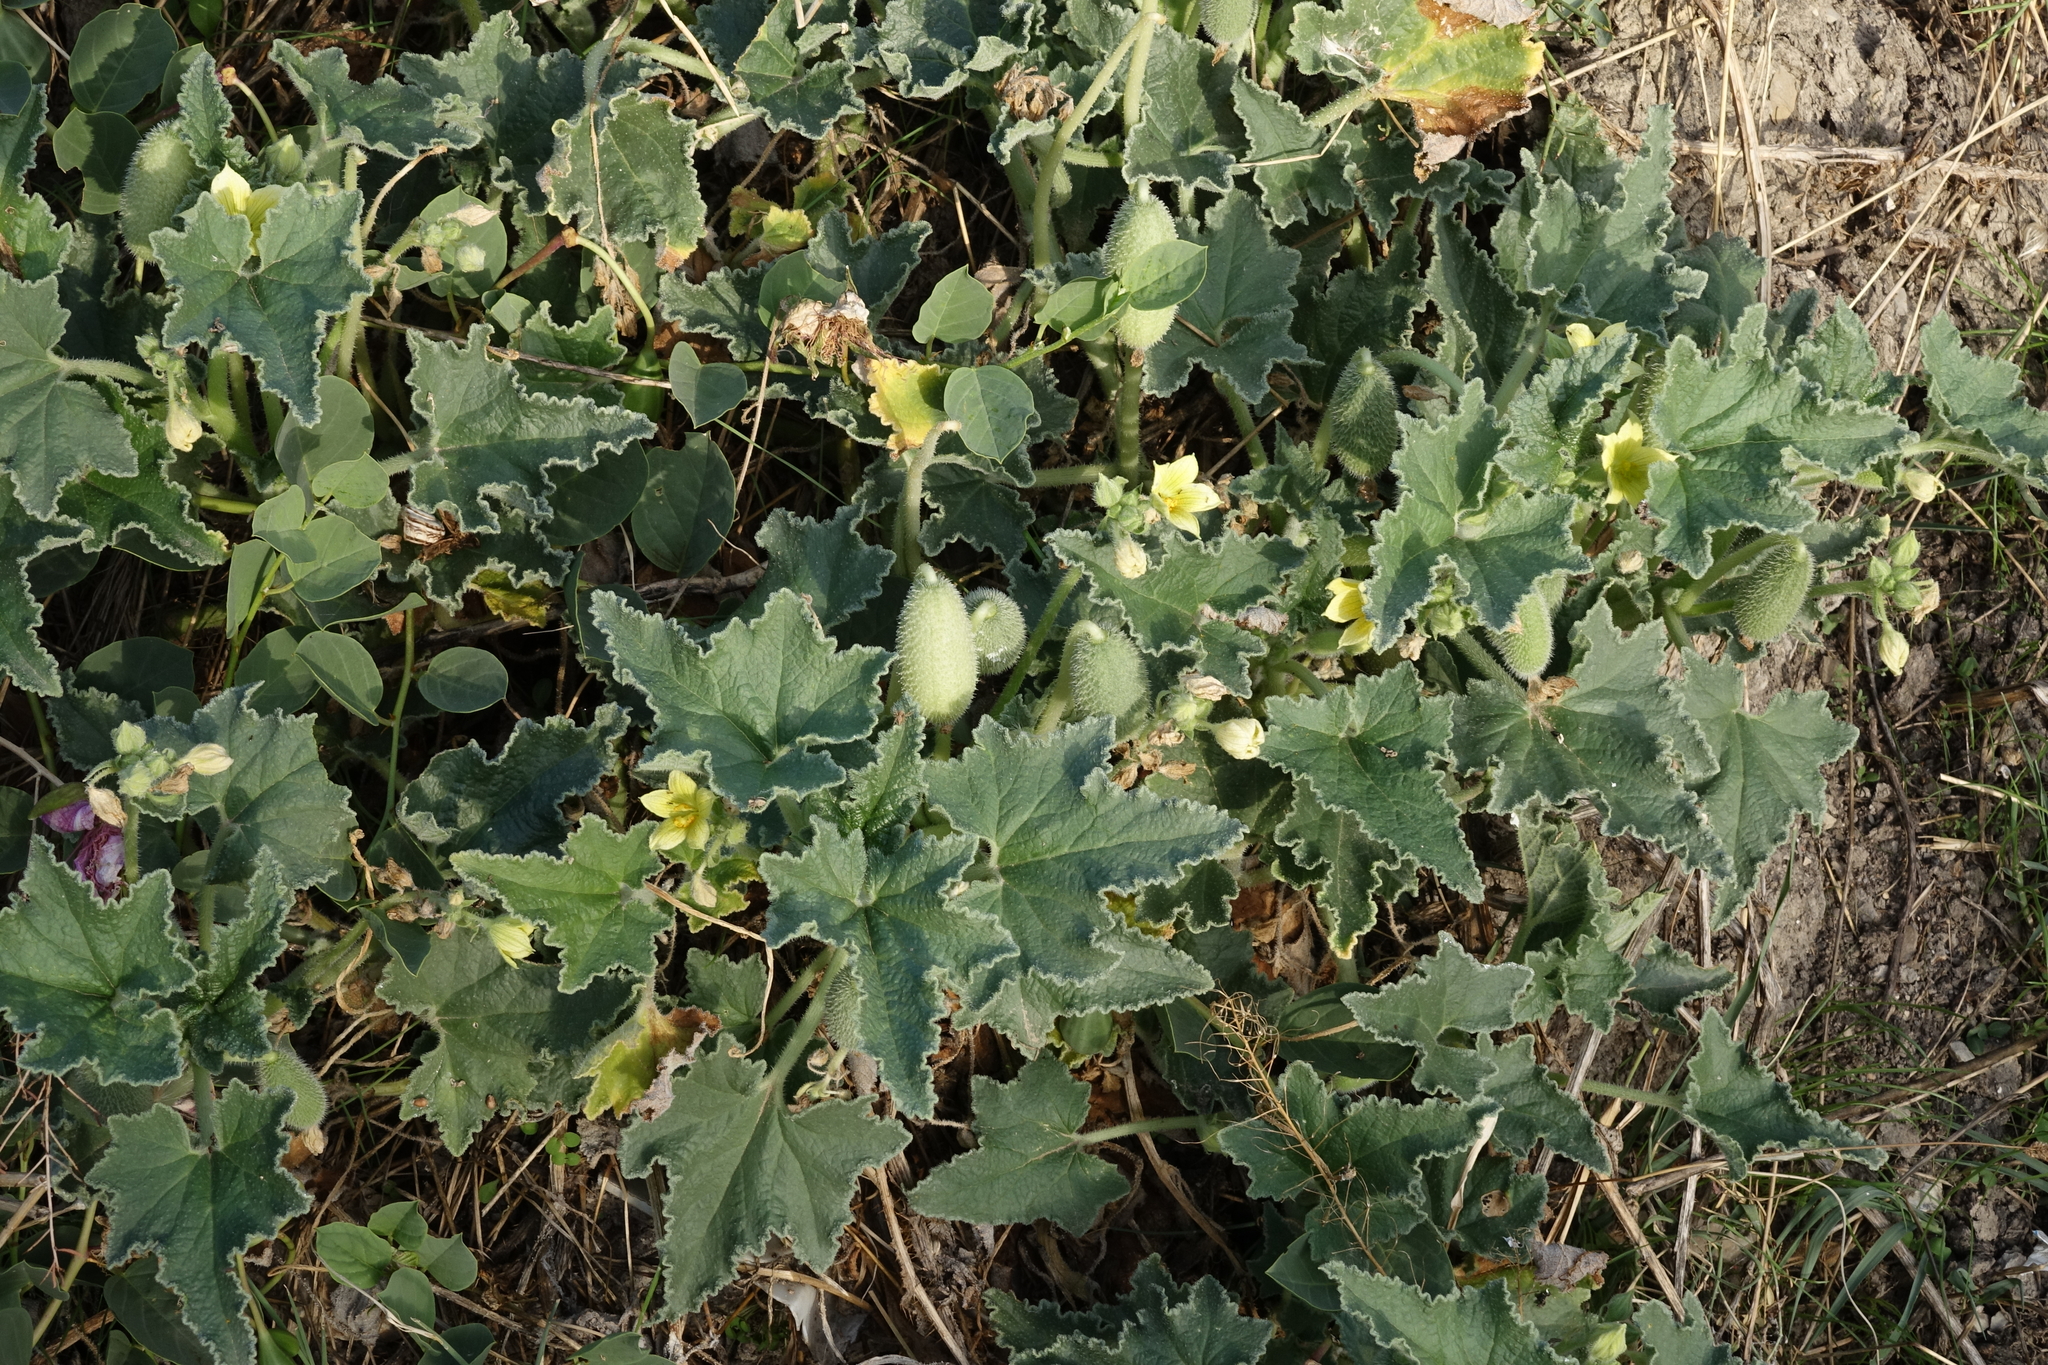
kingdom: Plantae
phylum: Tracheophyta
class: Magnoliopsida
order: Cucurbitales
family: Cucurbitaceae
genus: Ecballium
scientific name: Ecballium elaterium
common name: Squirting cucumber
